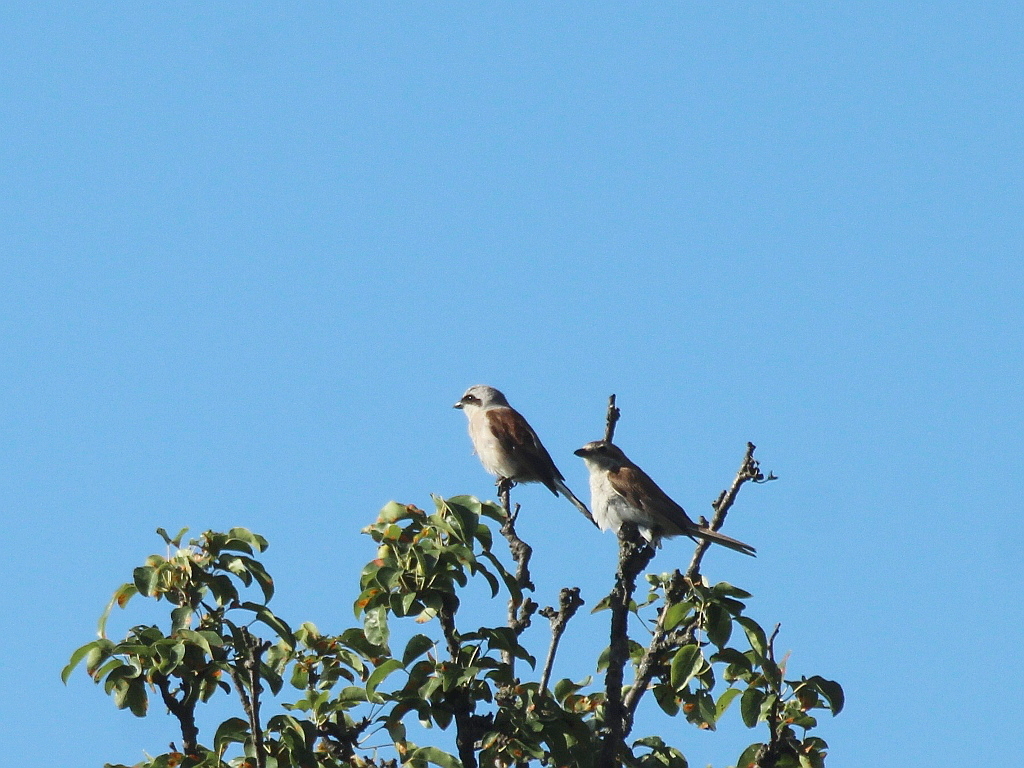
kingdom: Animalia
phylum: Chordata
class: Aves
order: Passeriformes
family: Laniidae
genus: Lanius
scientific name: Lanius collurio
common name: Red-backed shrike
